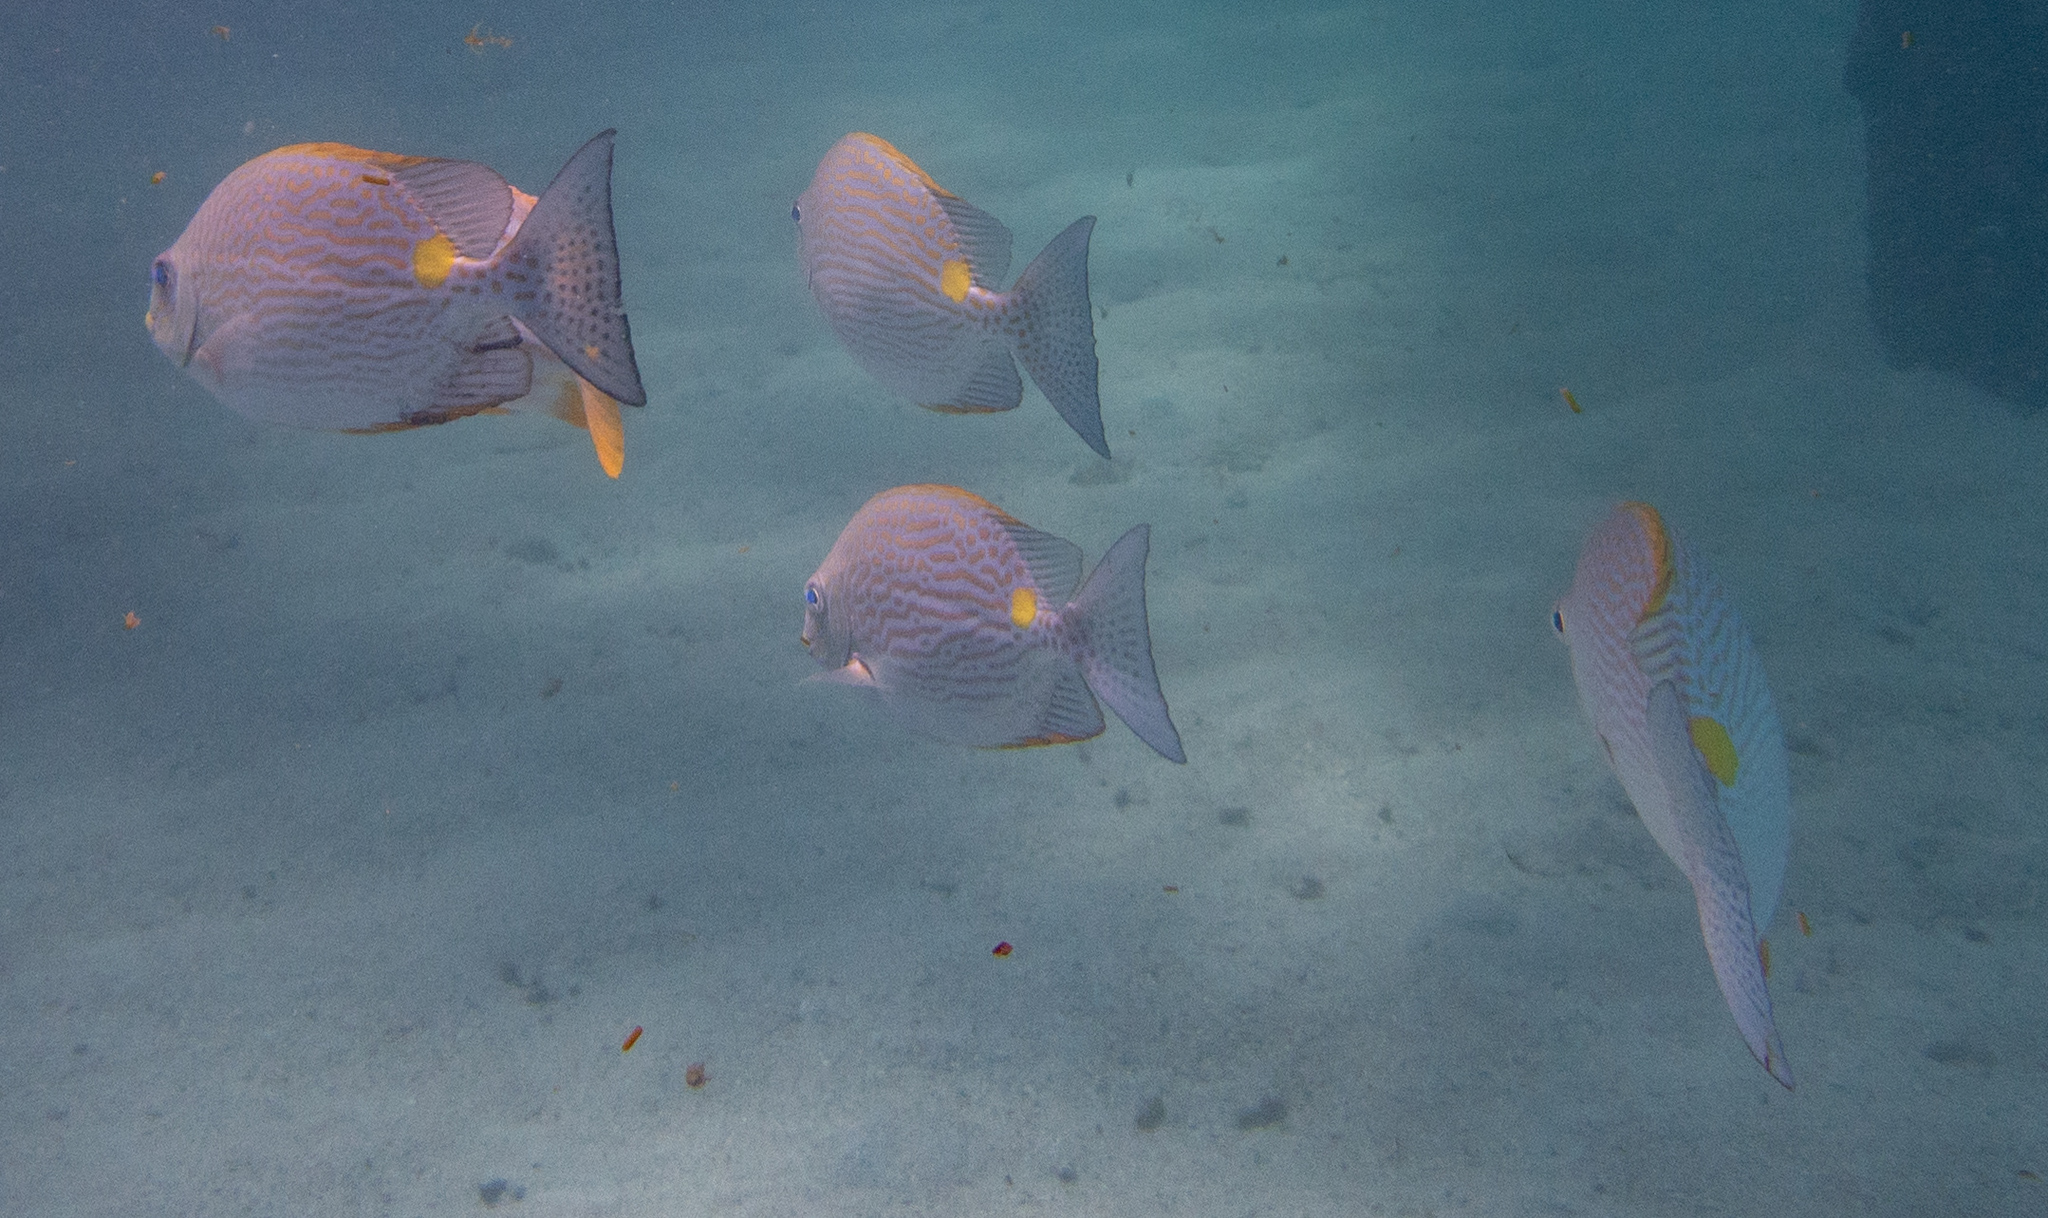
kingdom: Animalia
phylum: Chordata
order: Perciformes
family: Siganidae
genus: Siganus
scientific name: Siganus lineatus
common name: Lined rabbitfish
